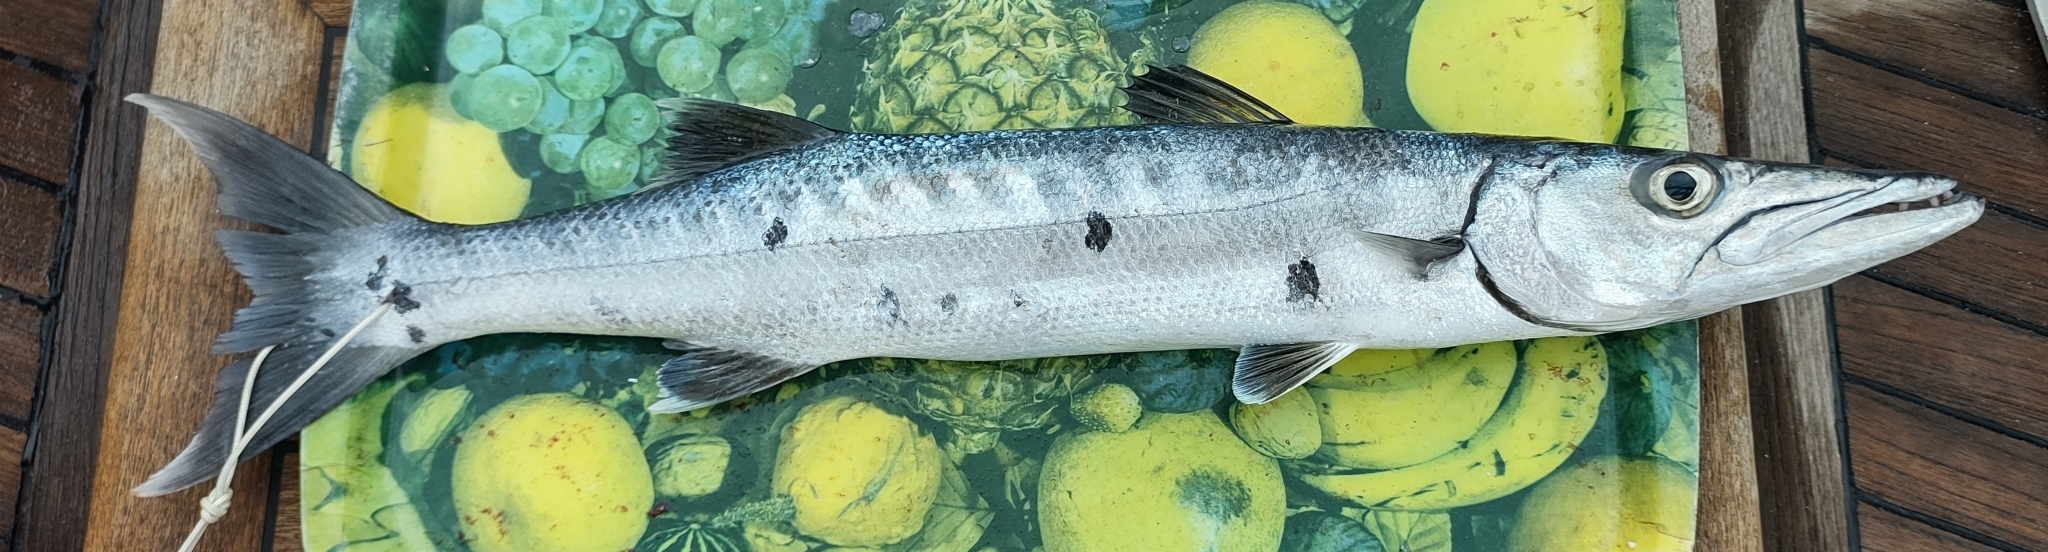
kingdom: Animalia
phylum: Chordata
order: Perciformes
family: Sphyraenidae
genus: Sphyraena
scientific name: Sphyraena barracuda
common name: Great barracuda
